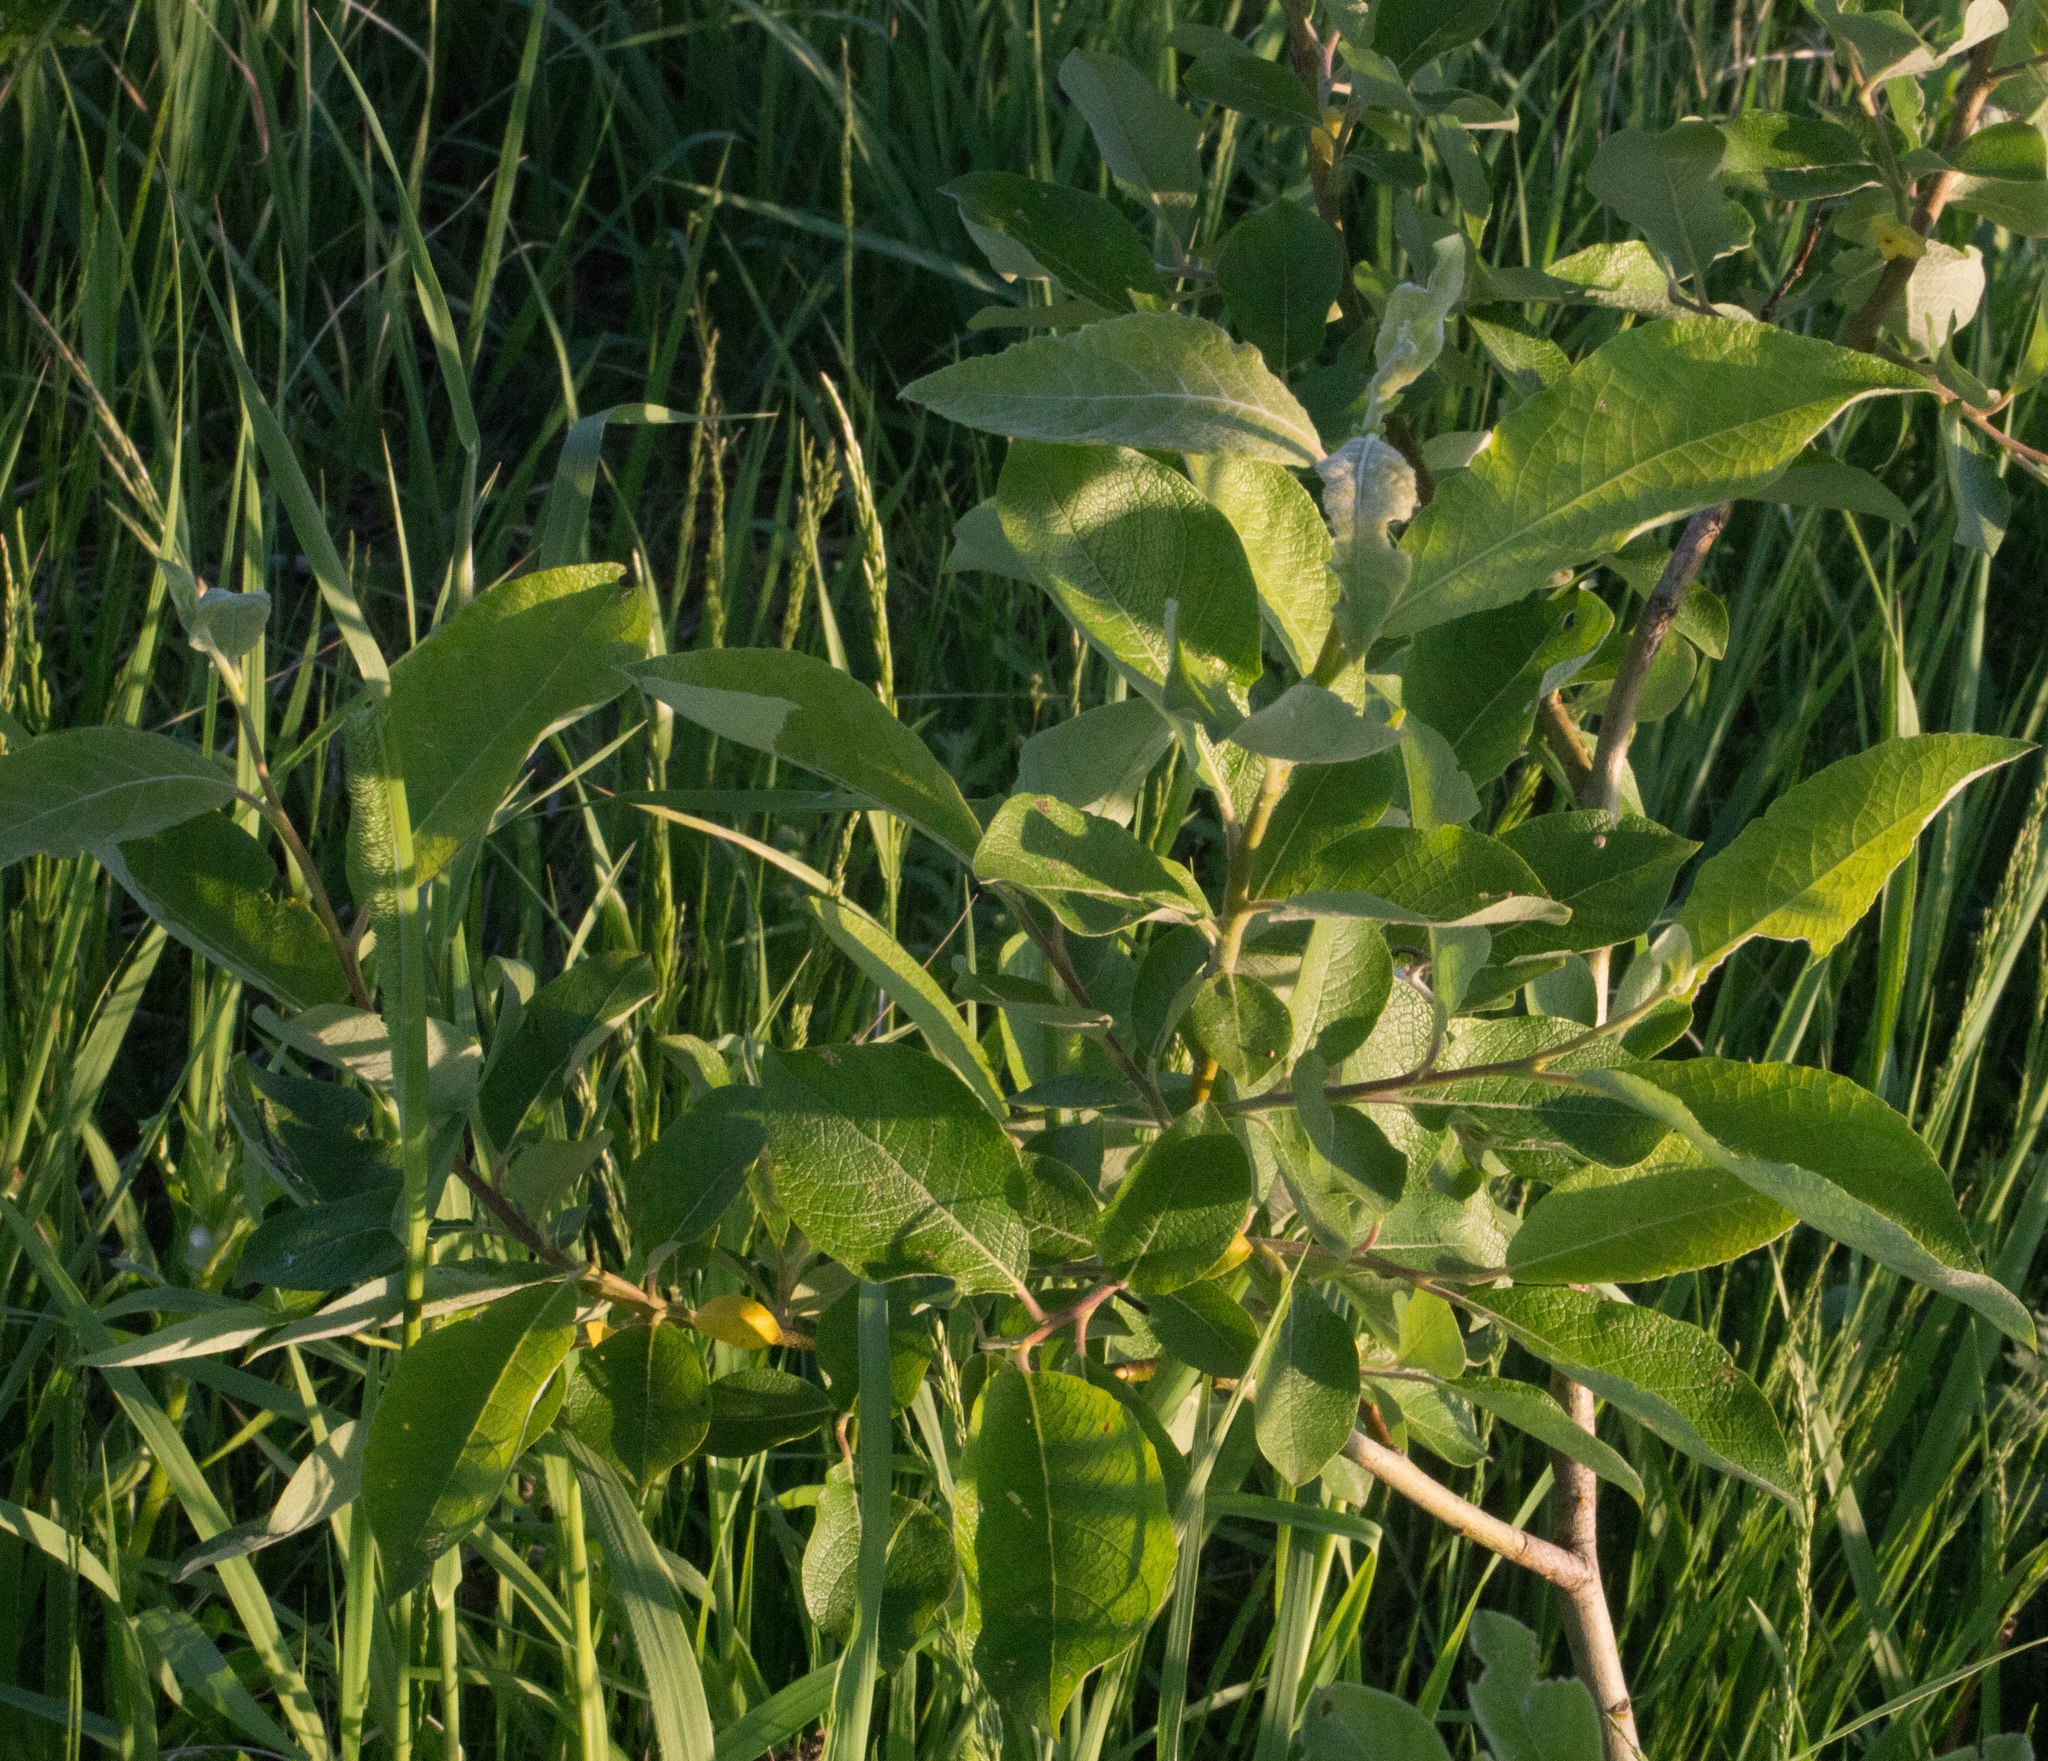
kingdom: Plantae
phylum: Tracheophyta
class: Magnoliopsida
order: Malpighiales
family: Salicaceae
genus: Salix
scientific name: Salix caprea
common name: Goat willow
